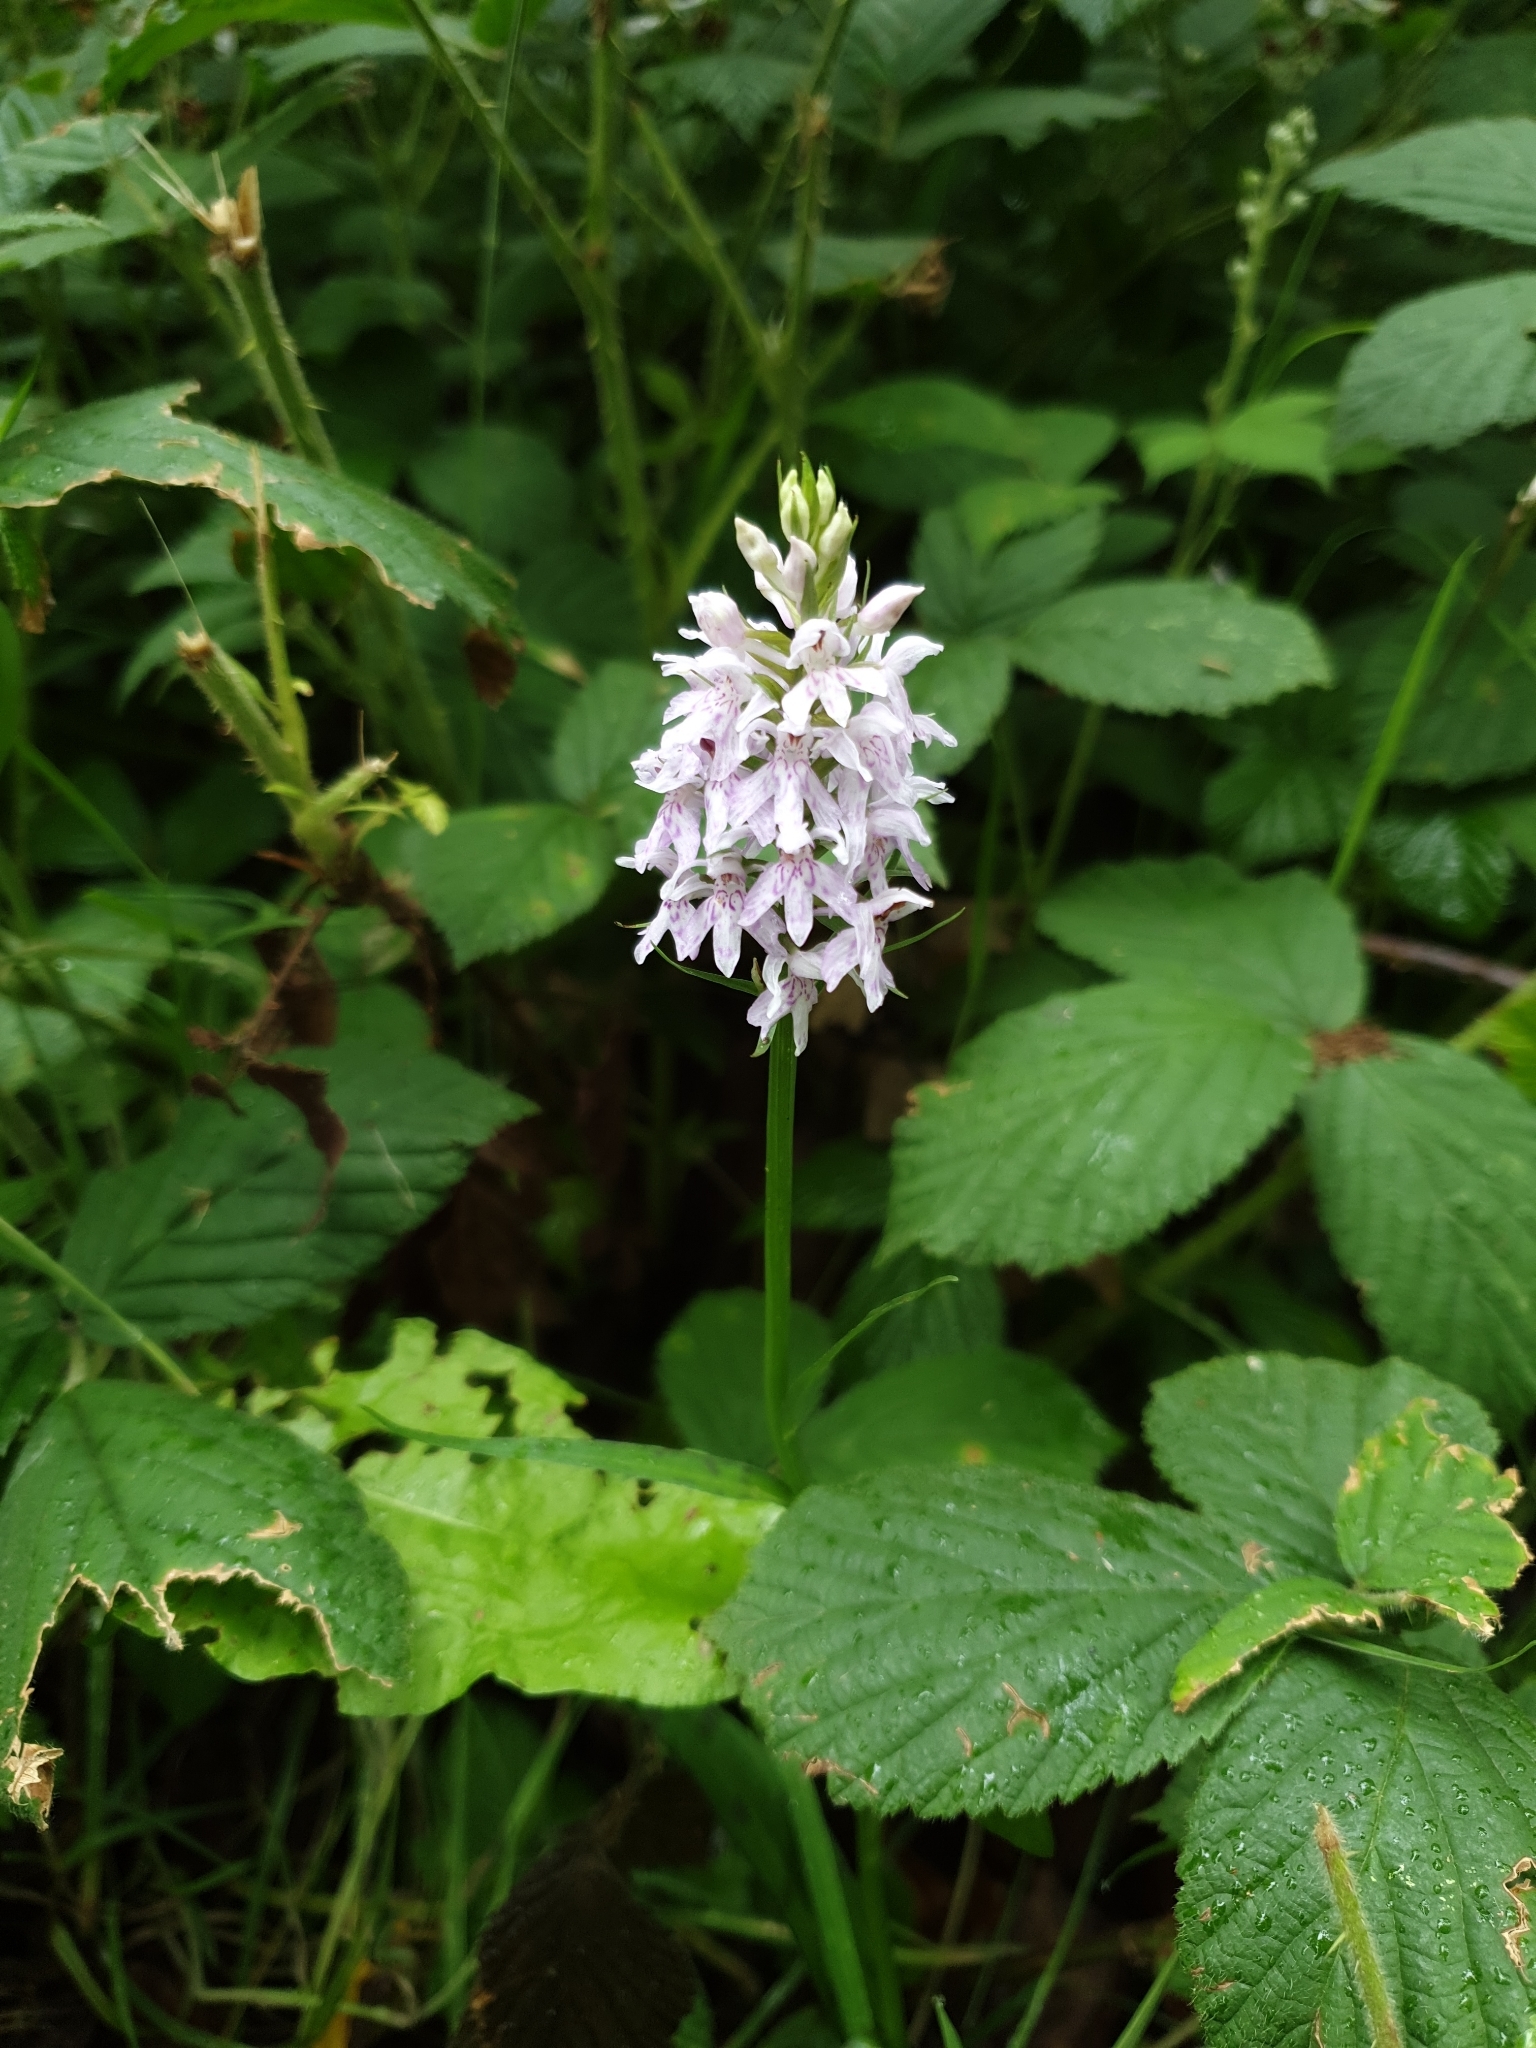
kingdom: Plantae
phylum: Tracheophyta
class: Liliopsida
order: Asparagales
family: Orchidaceae
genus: Dactylorhiza
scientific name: Dactylorhiza maculata
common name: Heath spotted-orchid
